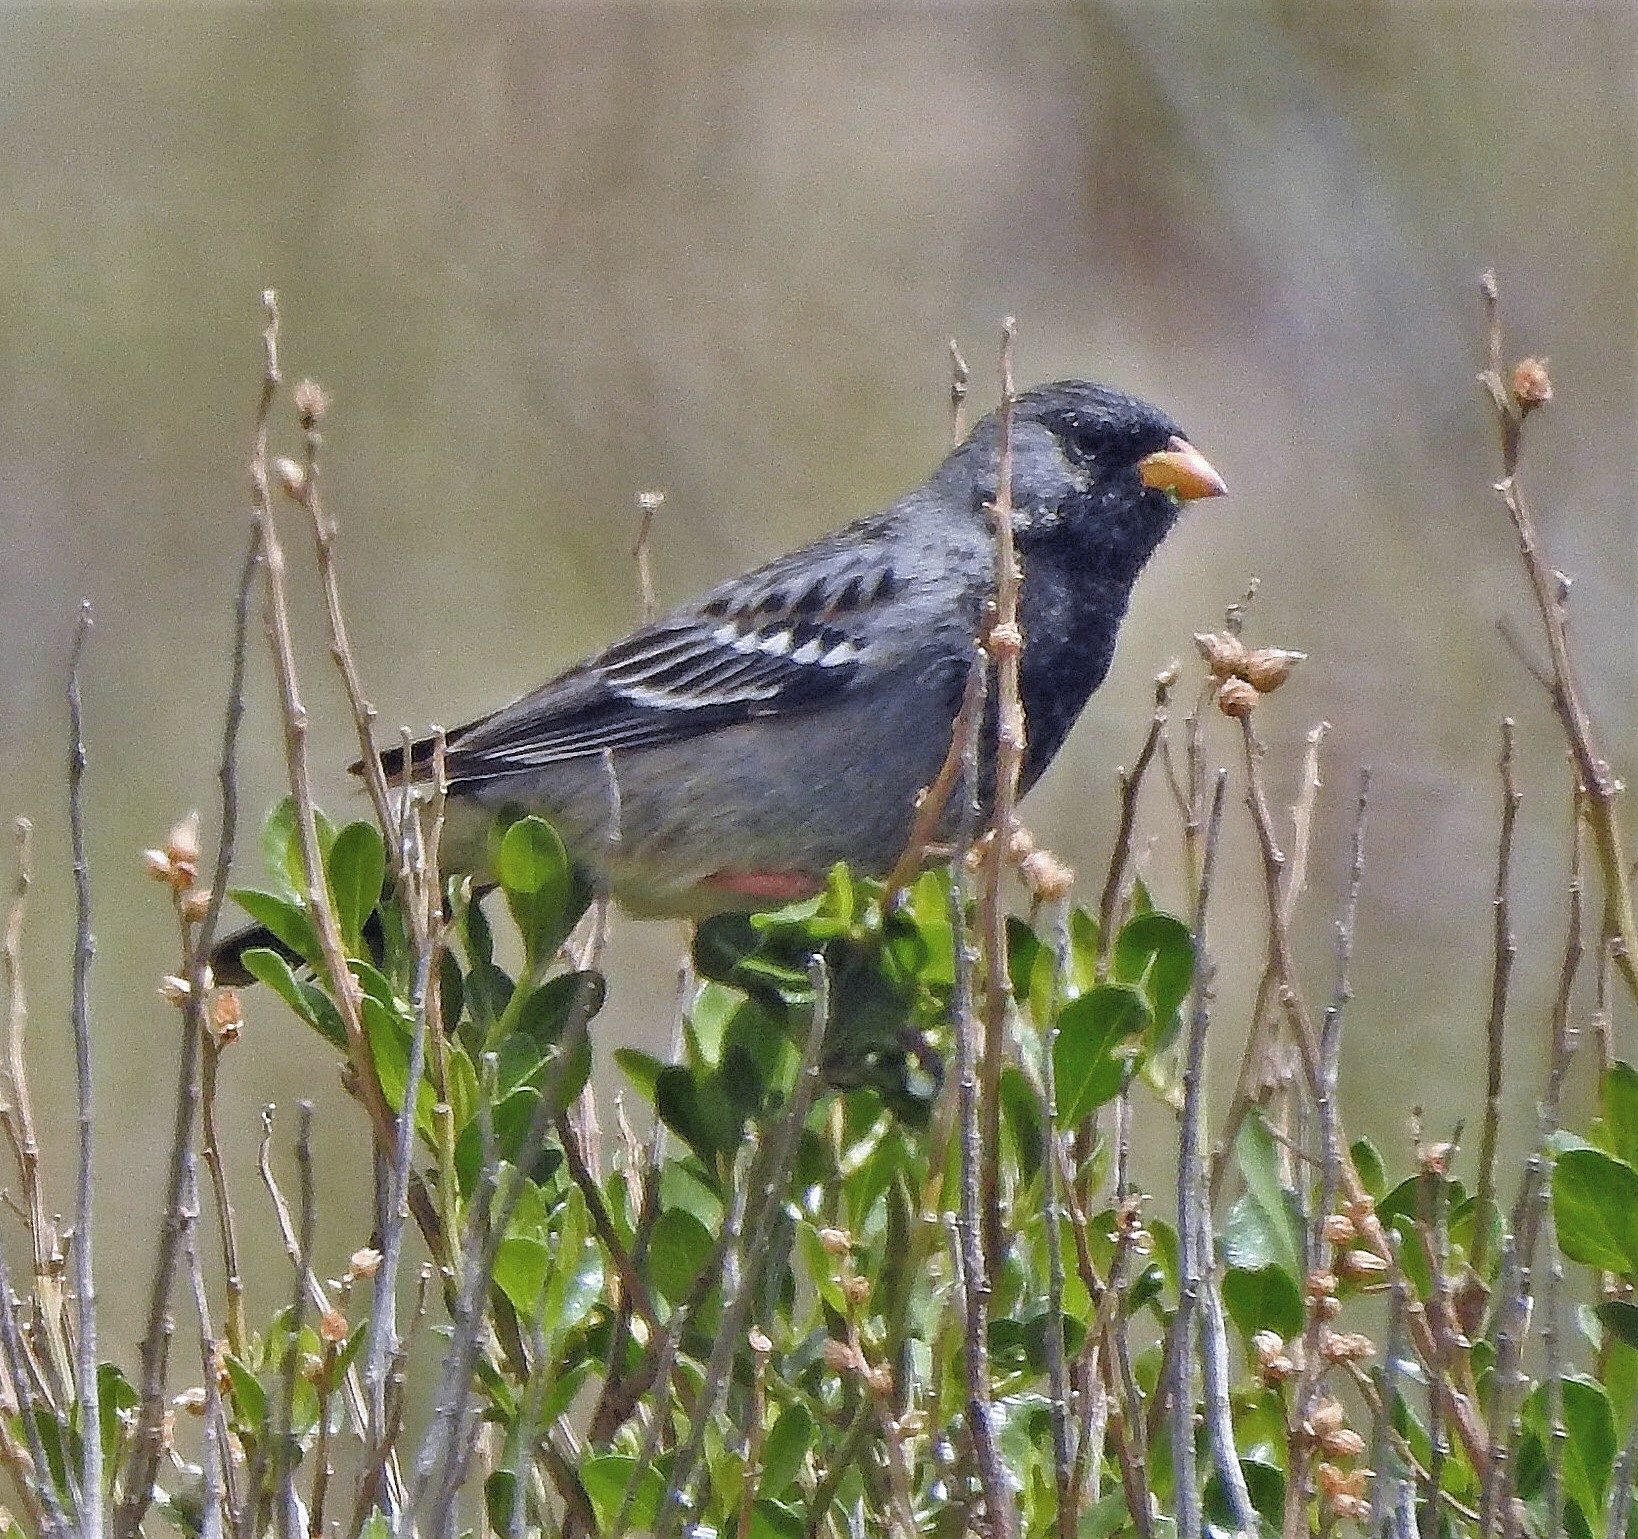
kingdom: Animalia
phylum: Chordata
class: Aves
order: Passeriformes
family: Thraupidae
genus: Rhopospina
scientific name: Rhopospina fruticeti
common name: Mourning sierra finch
